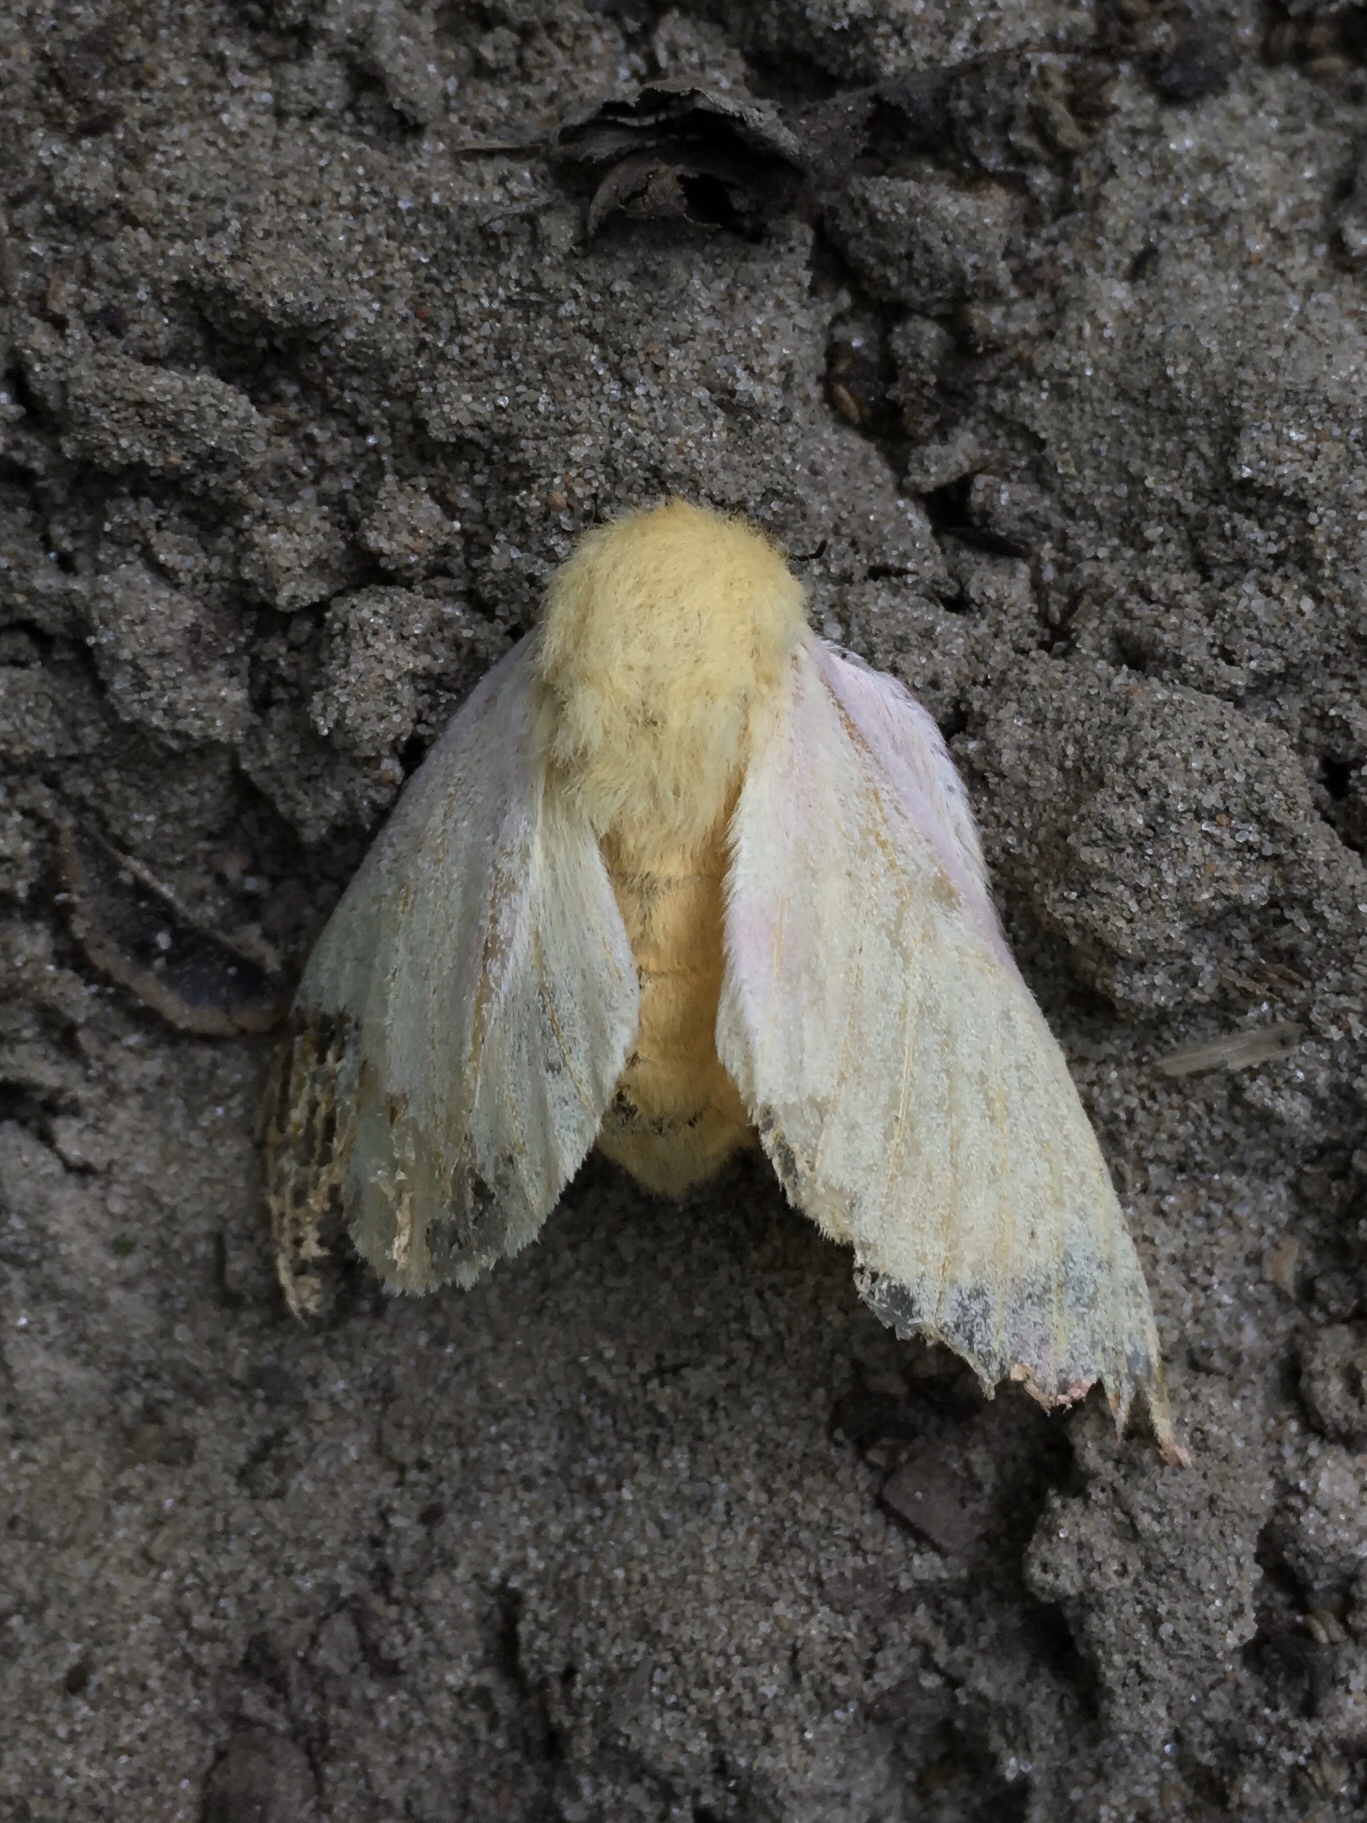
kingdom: Animalia
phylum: Arthropoda
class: Insecta
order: Lepidoptera
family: Saturniidae
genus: Dryocampa
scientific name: Dryocampa rubicunda
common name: Rosy maple moth
